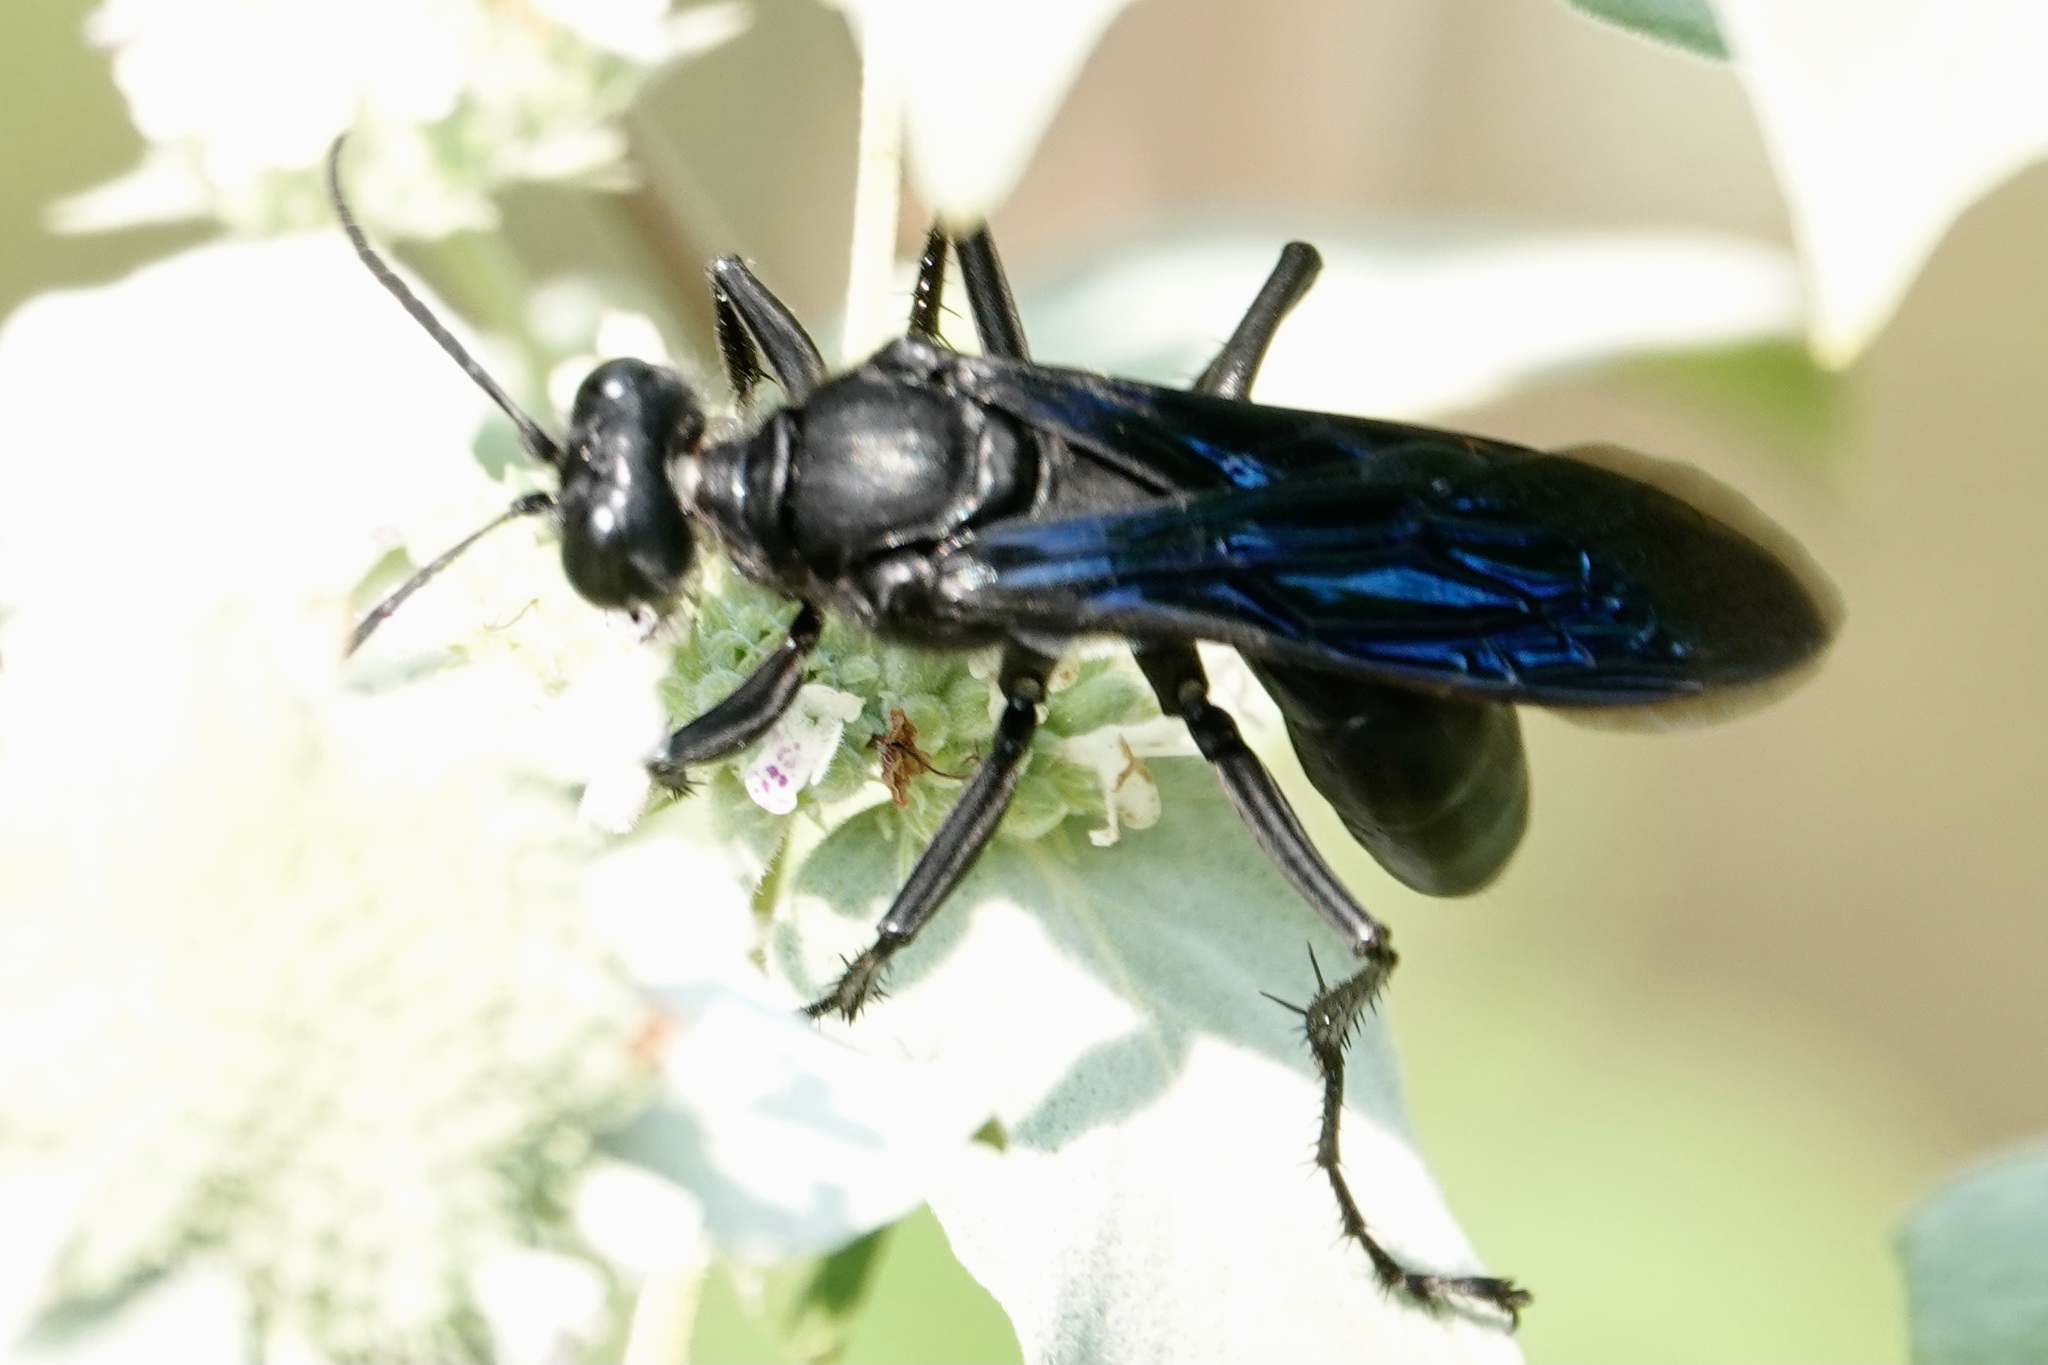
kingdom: Animalia
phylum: Arthropoda
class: Insecta
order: Hymenoptera
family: Sphecidae
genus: Sphex
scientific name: Sphex pensylvanicus
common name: Great black digger wasp
